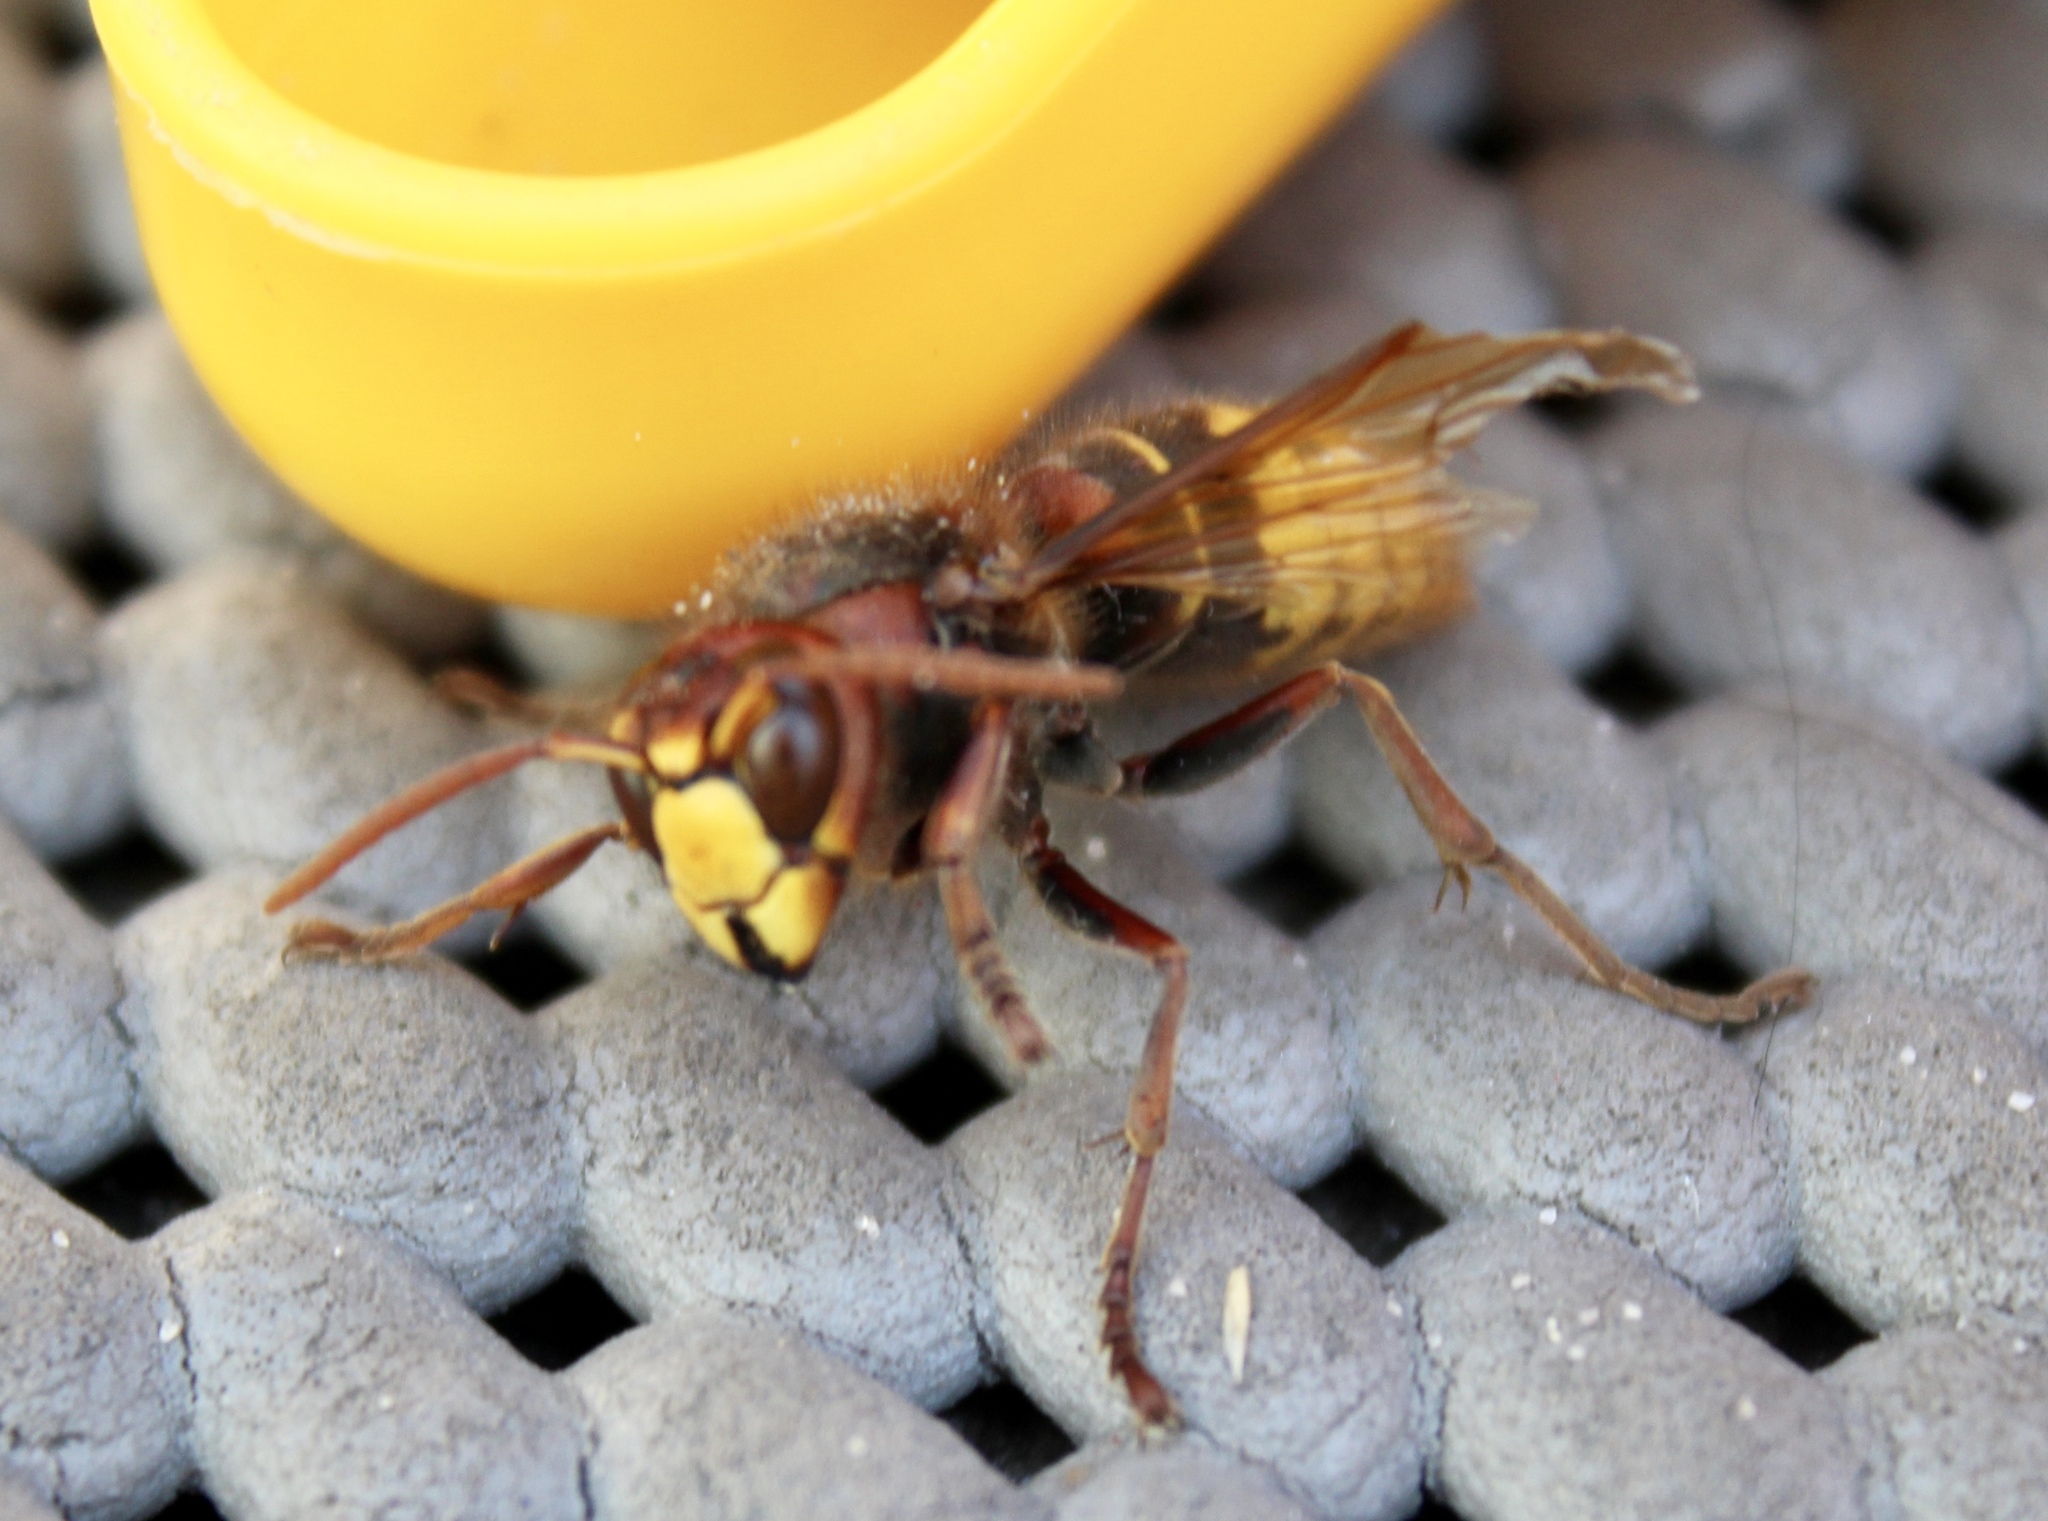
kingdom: Animalia
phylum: Arthropoda
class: Insecta
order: Hymenoptera
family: Vespidae
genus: Vespa
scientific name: Vespa crabro
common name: Hornet
